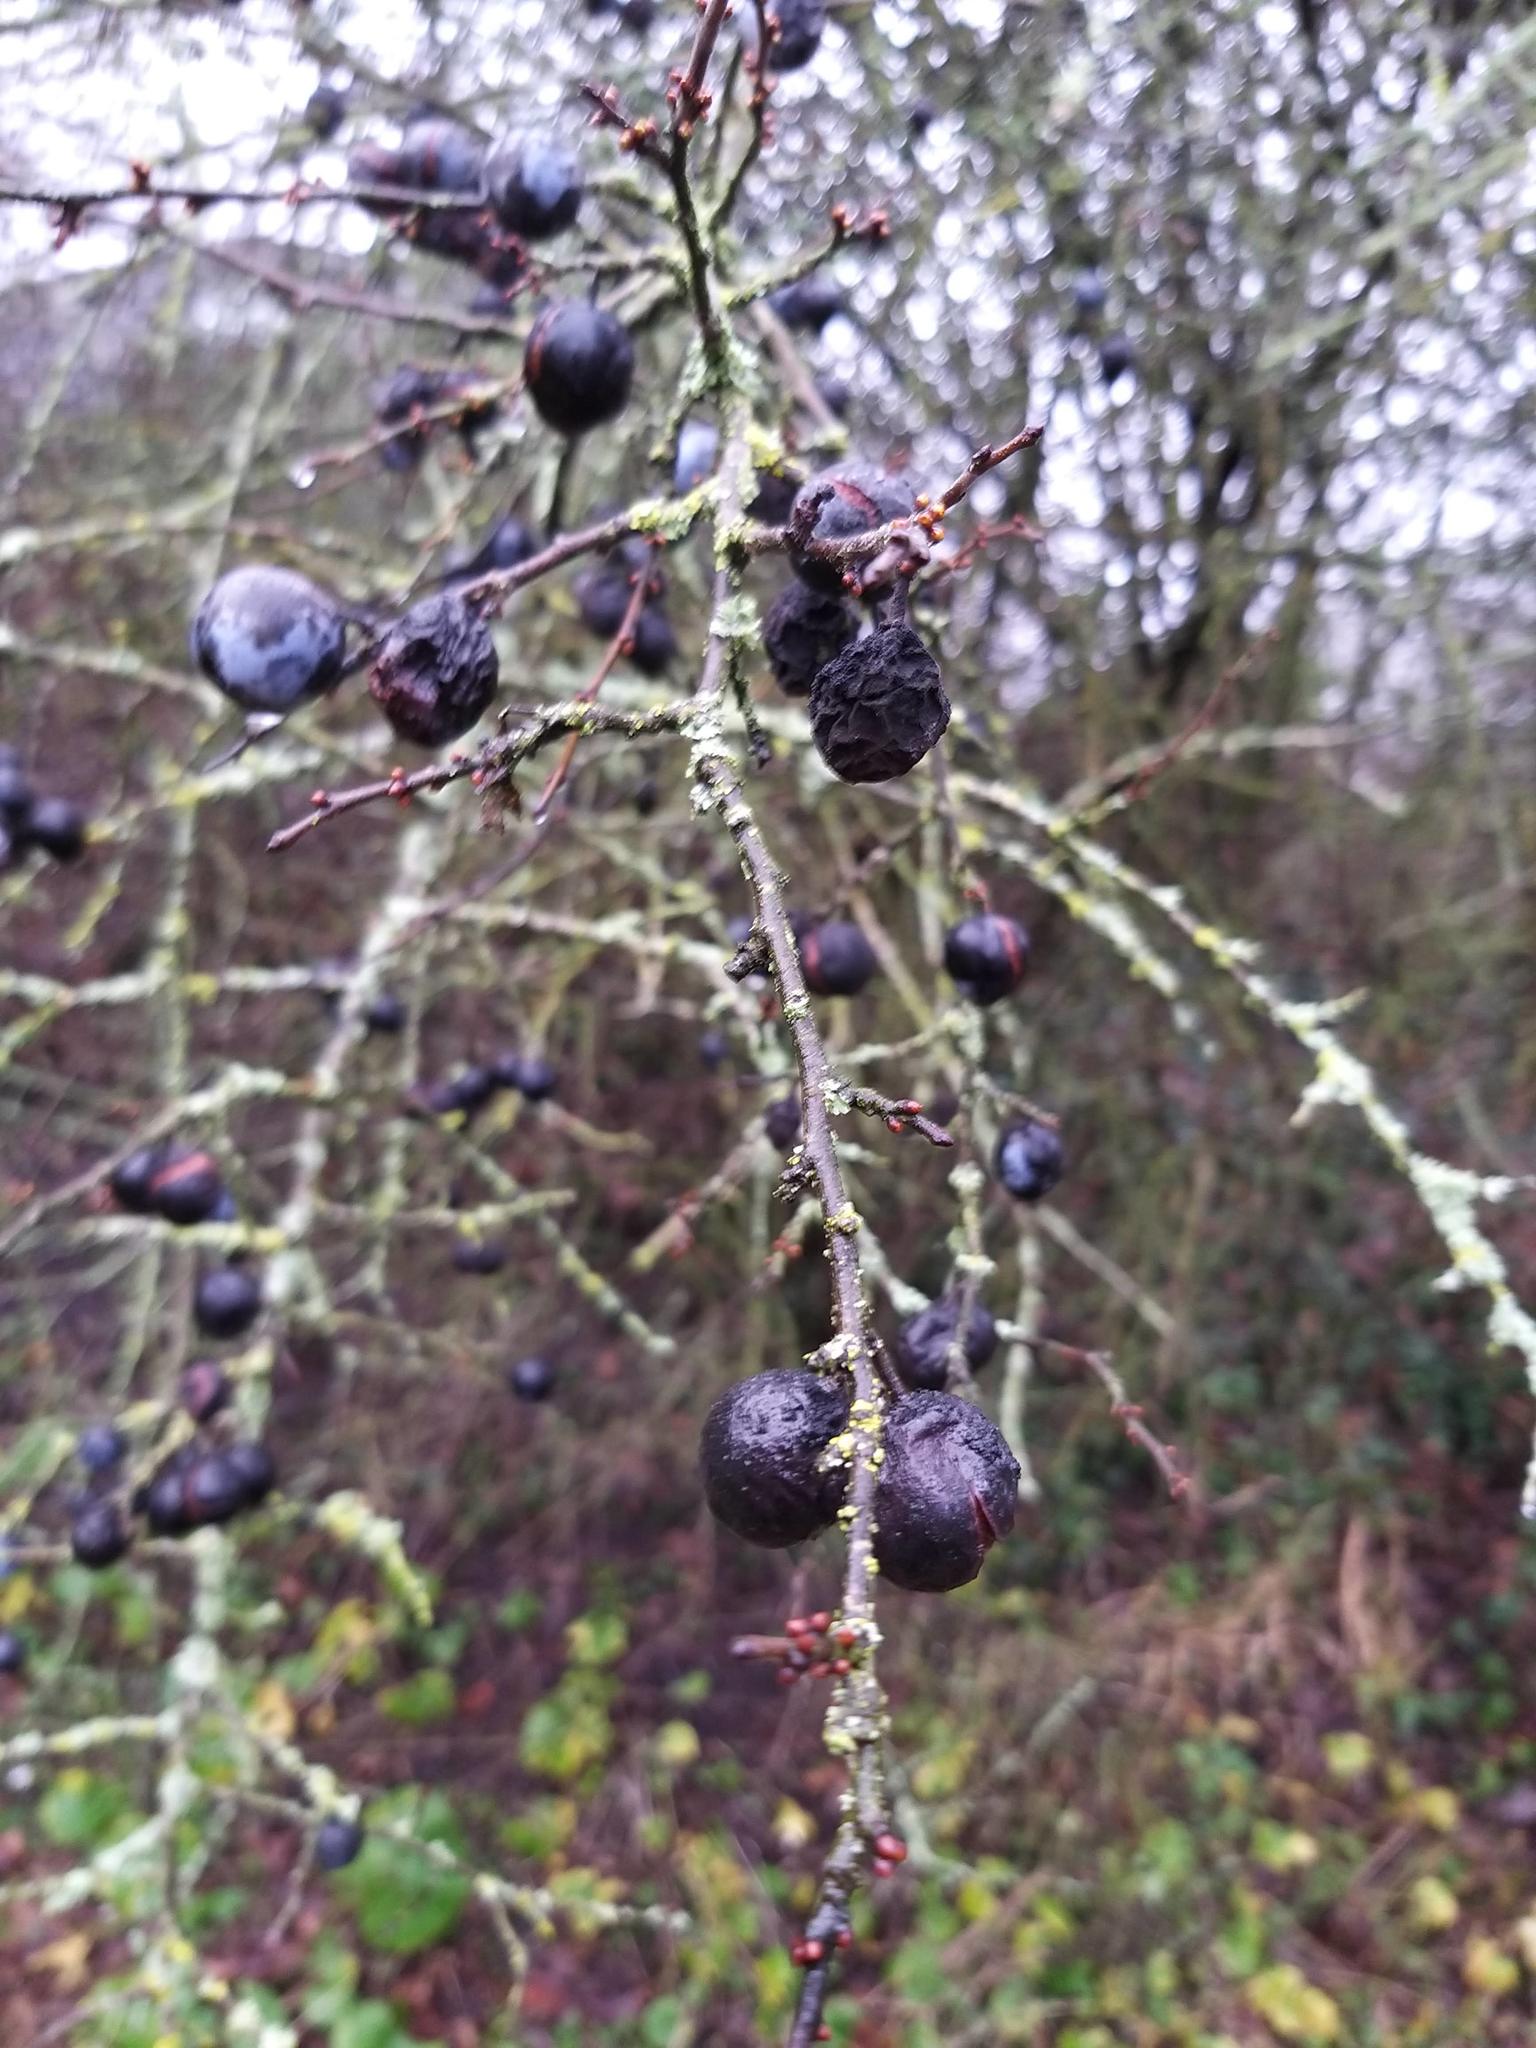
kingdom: Plantae
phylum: Tracheophyta
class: Magnoliopsida
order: Rosales
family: Rosaceae
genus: Prunus
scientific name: Prunus spinosa
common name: Blackthorn
